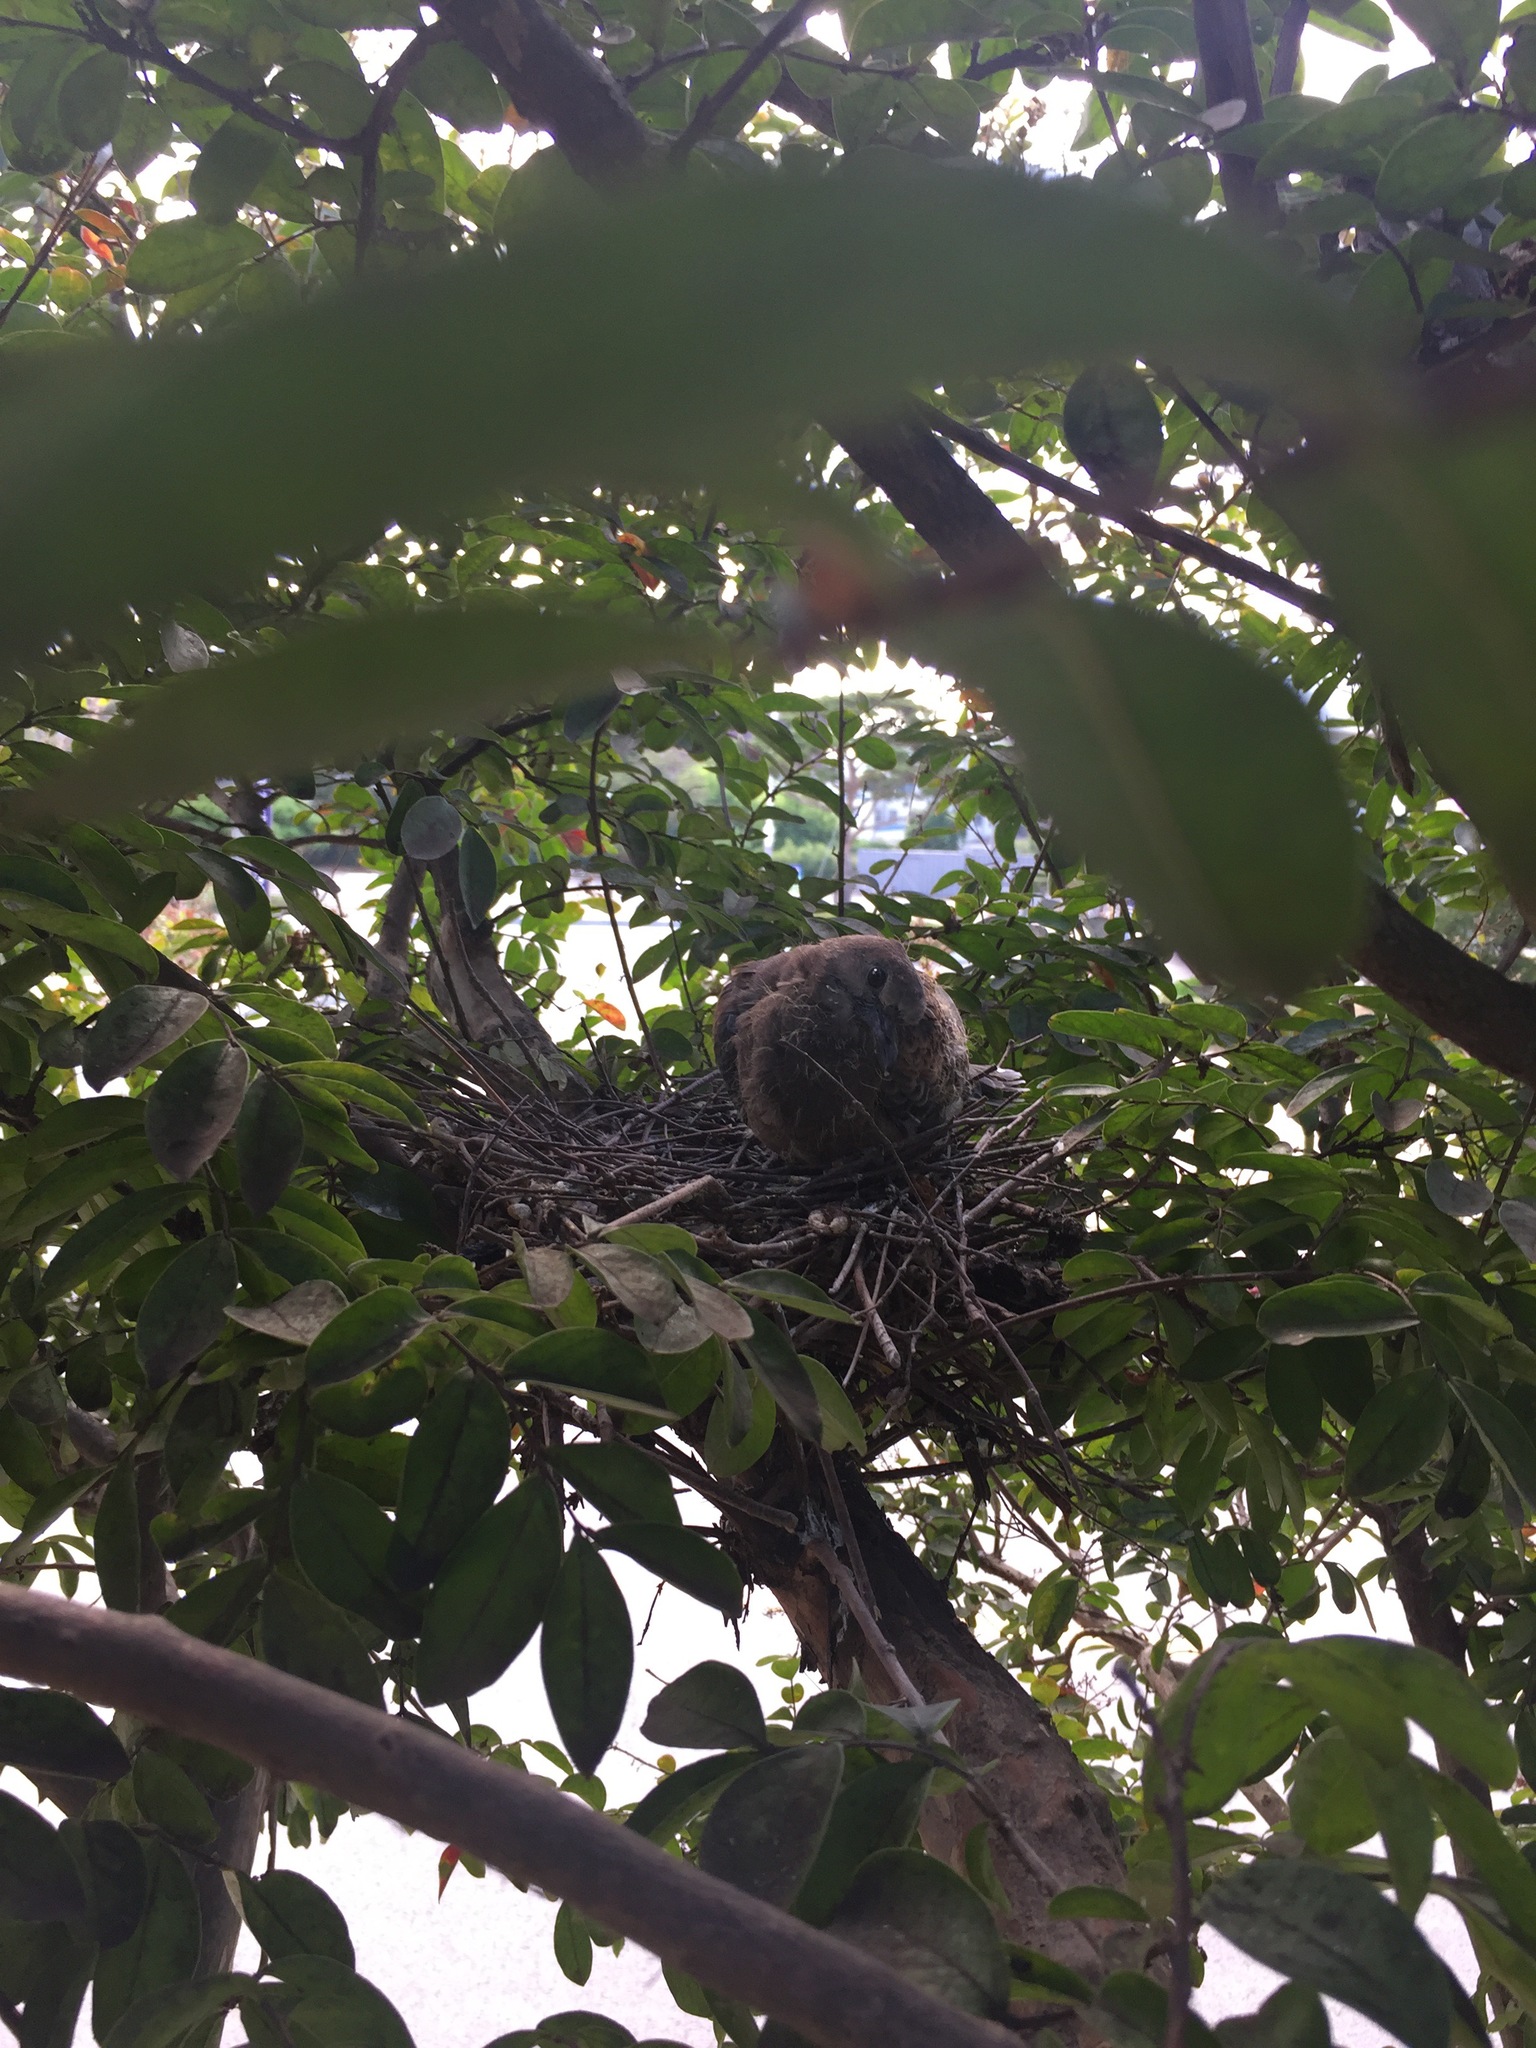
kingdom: Animalia
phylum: Chordata
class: Aves
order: Columbiformes
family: Columbidae
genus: Streptopelia
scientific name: Streptopelia orientalis
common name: Oriental turtle dove
